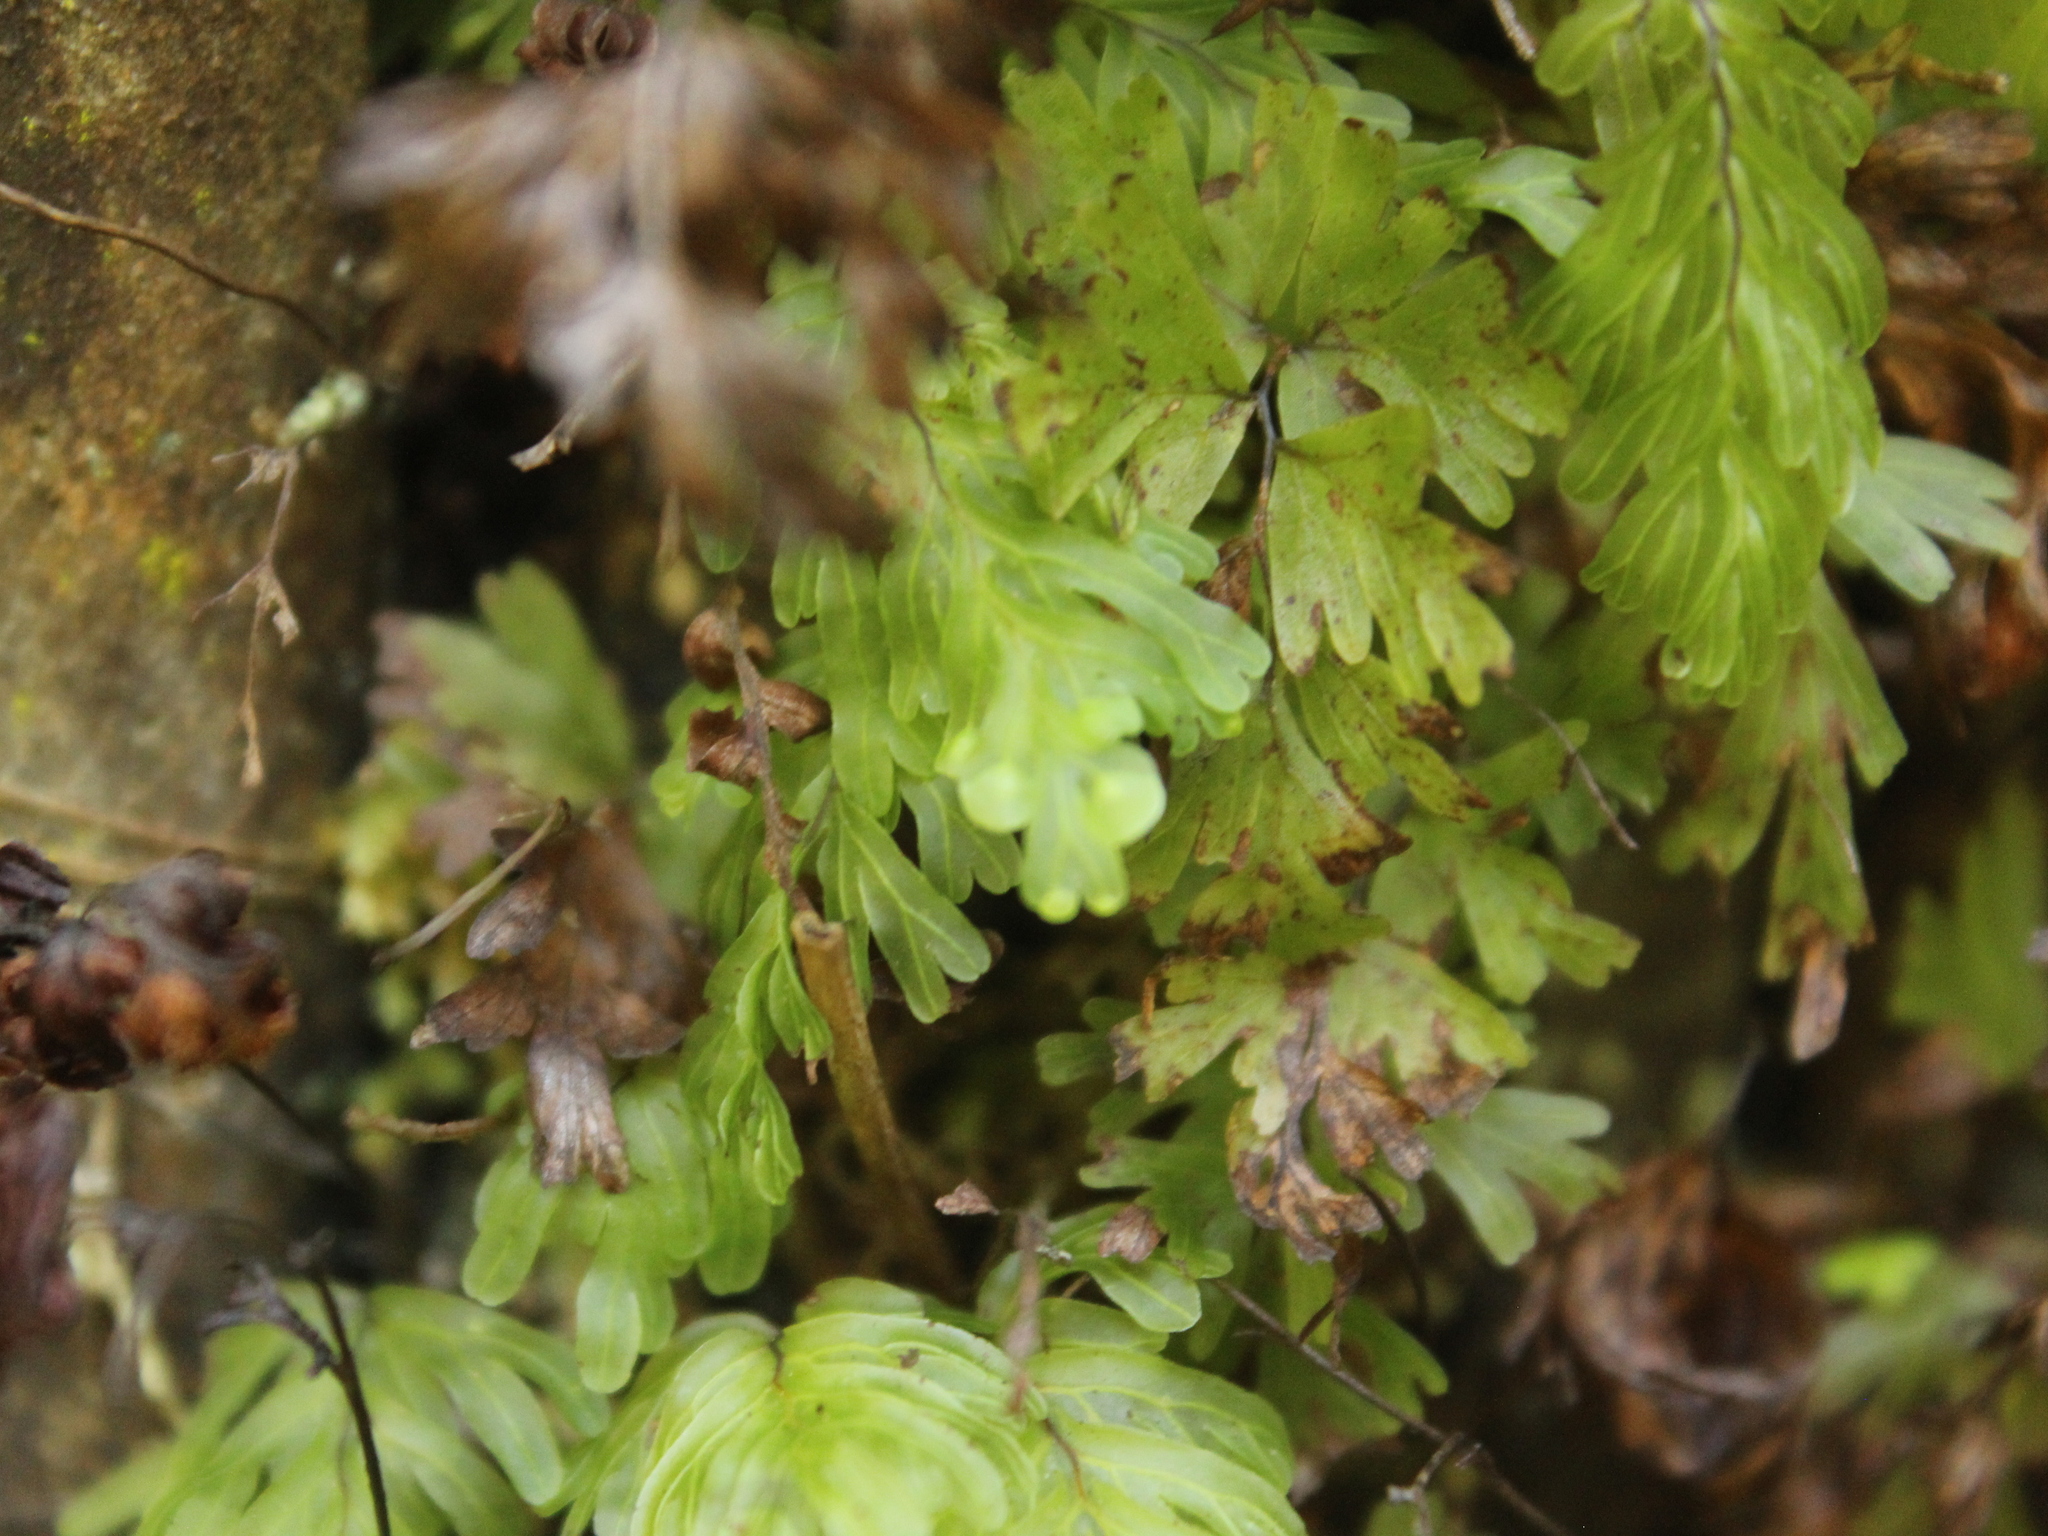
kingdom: Plantae
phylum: Tracheophyta
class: Polypodiopsida
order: Hymenophyllales
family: Hymenophyllaceae
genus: Hymenophyllum
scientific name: Hymenophyllum rarum
